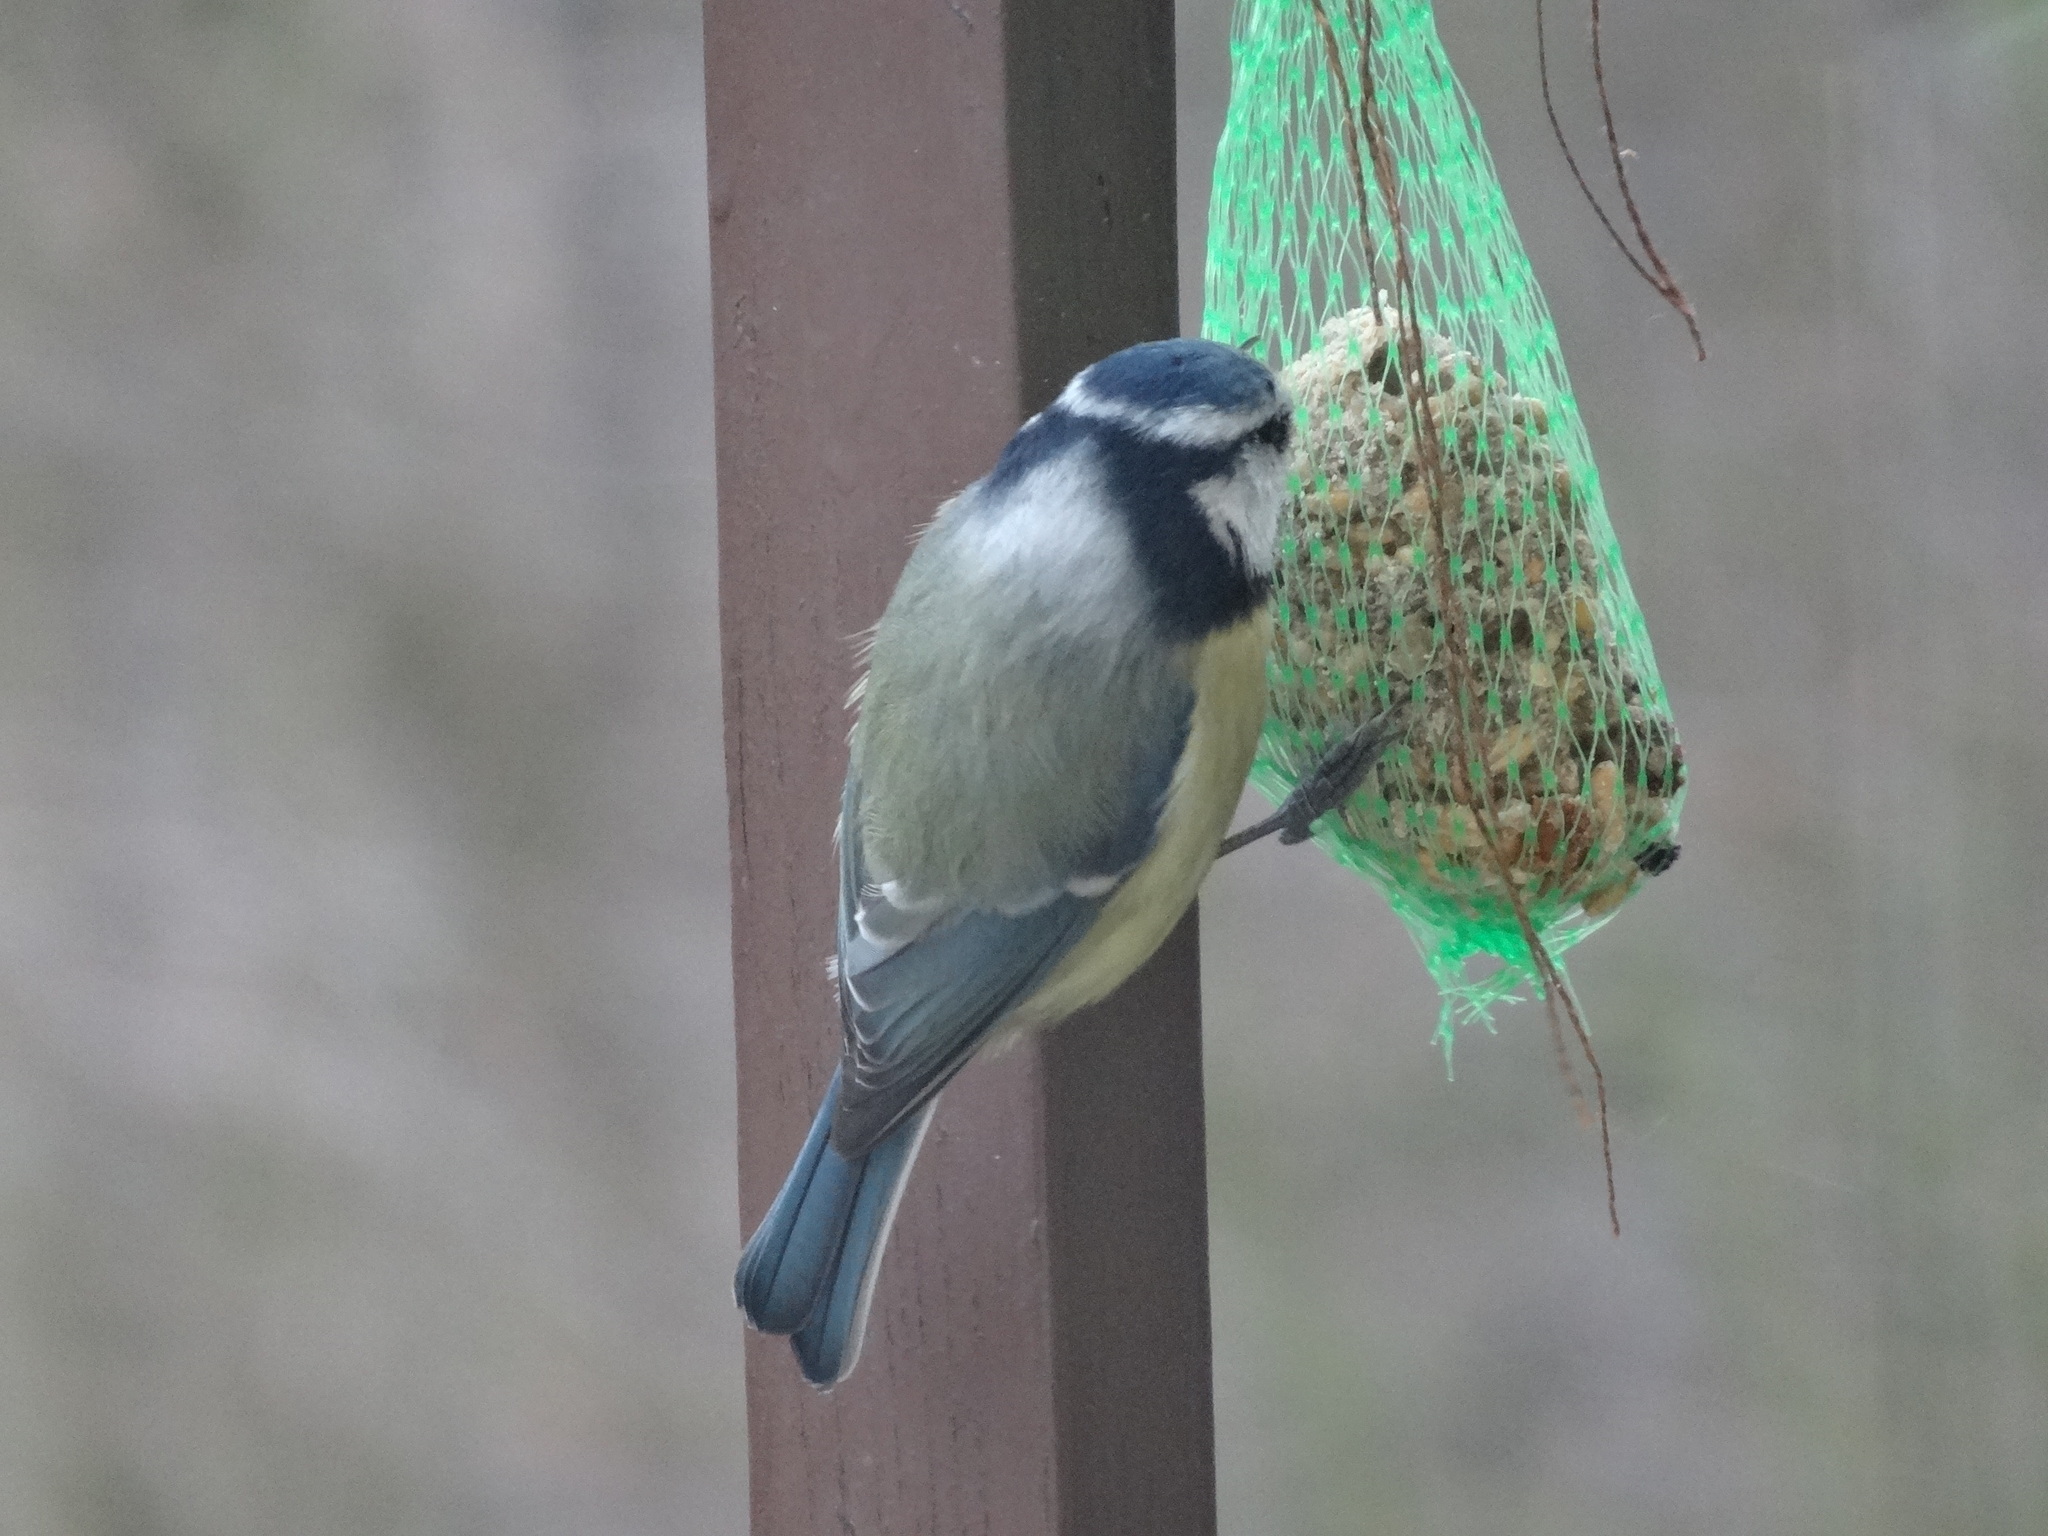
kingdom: Animalia
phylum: Chordata
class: Aves
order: Passeriformes
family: Paridae
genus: Cyanistes
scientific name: Cyanistes caeruleus
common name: Eurasian blue tit
